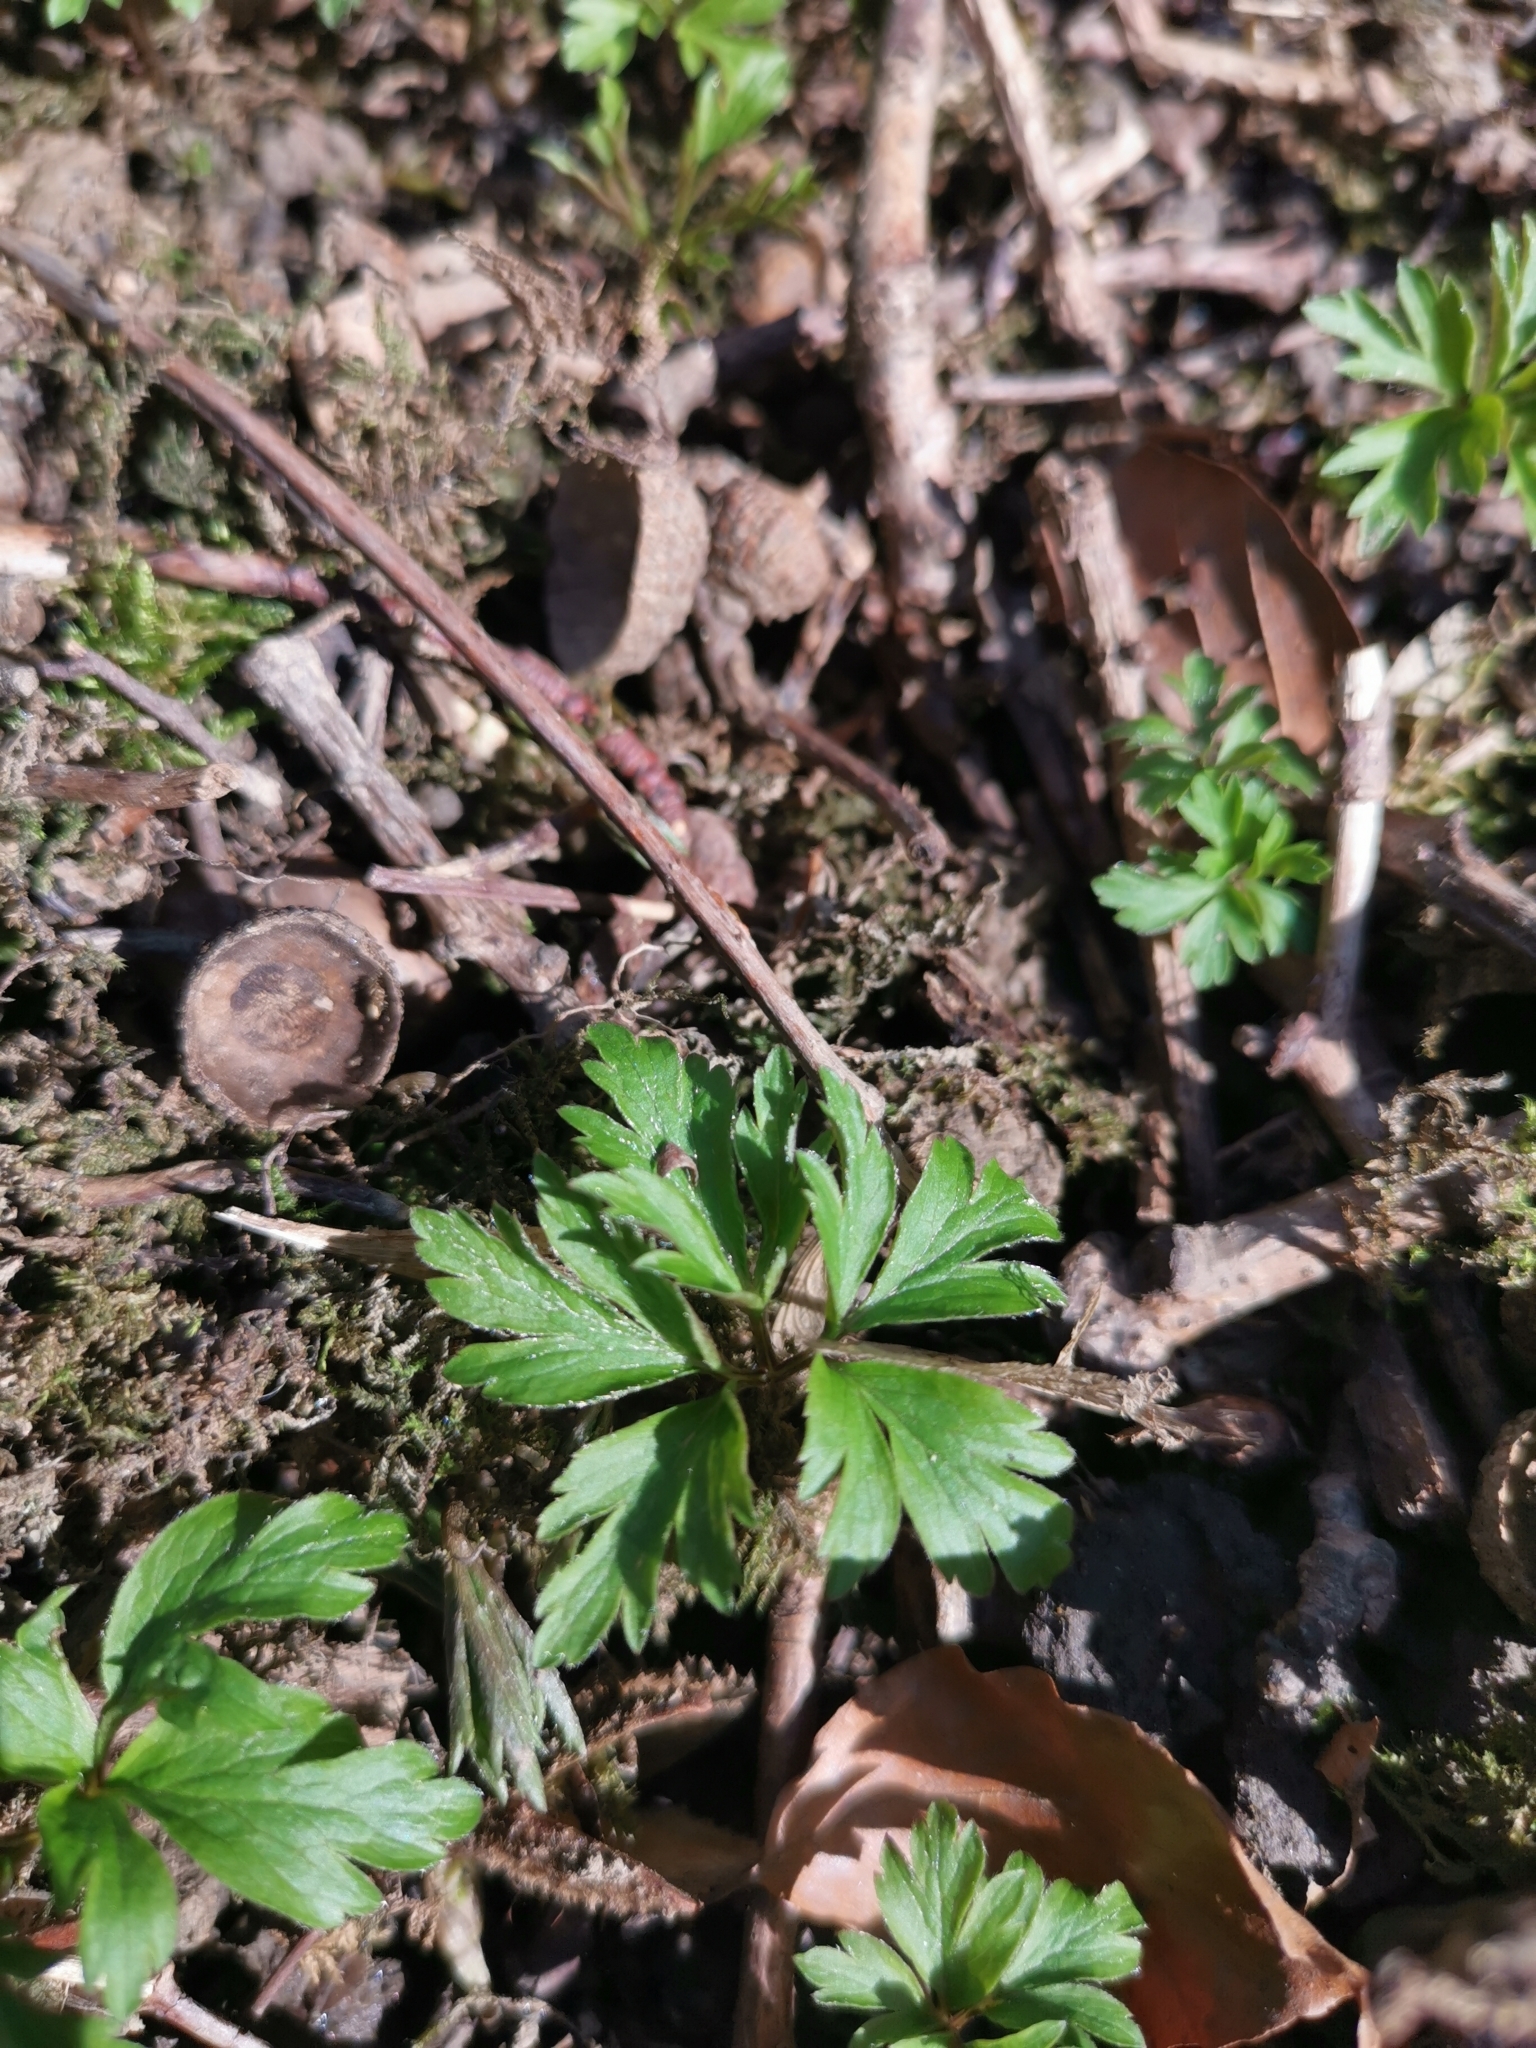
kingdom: Plantae
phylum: Tracheophyta
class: Magnoliopsida
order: Ranunculales
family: Ranunculaceae
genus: Anemone
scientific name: Anemone nemorosa
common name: Wood anemone
